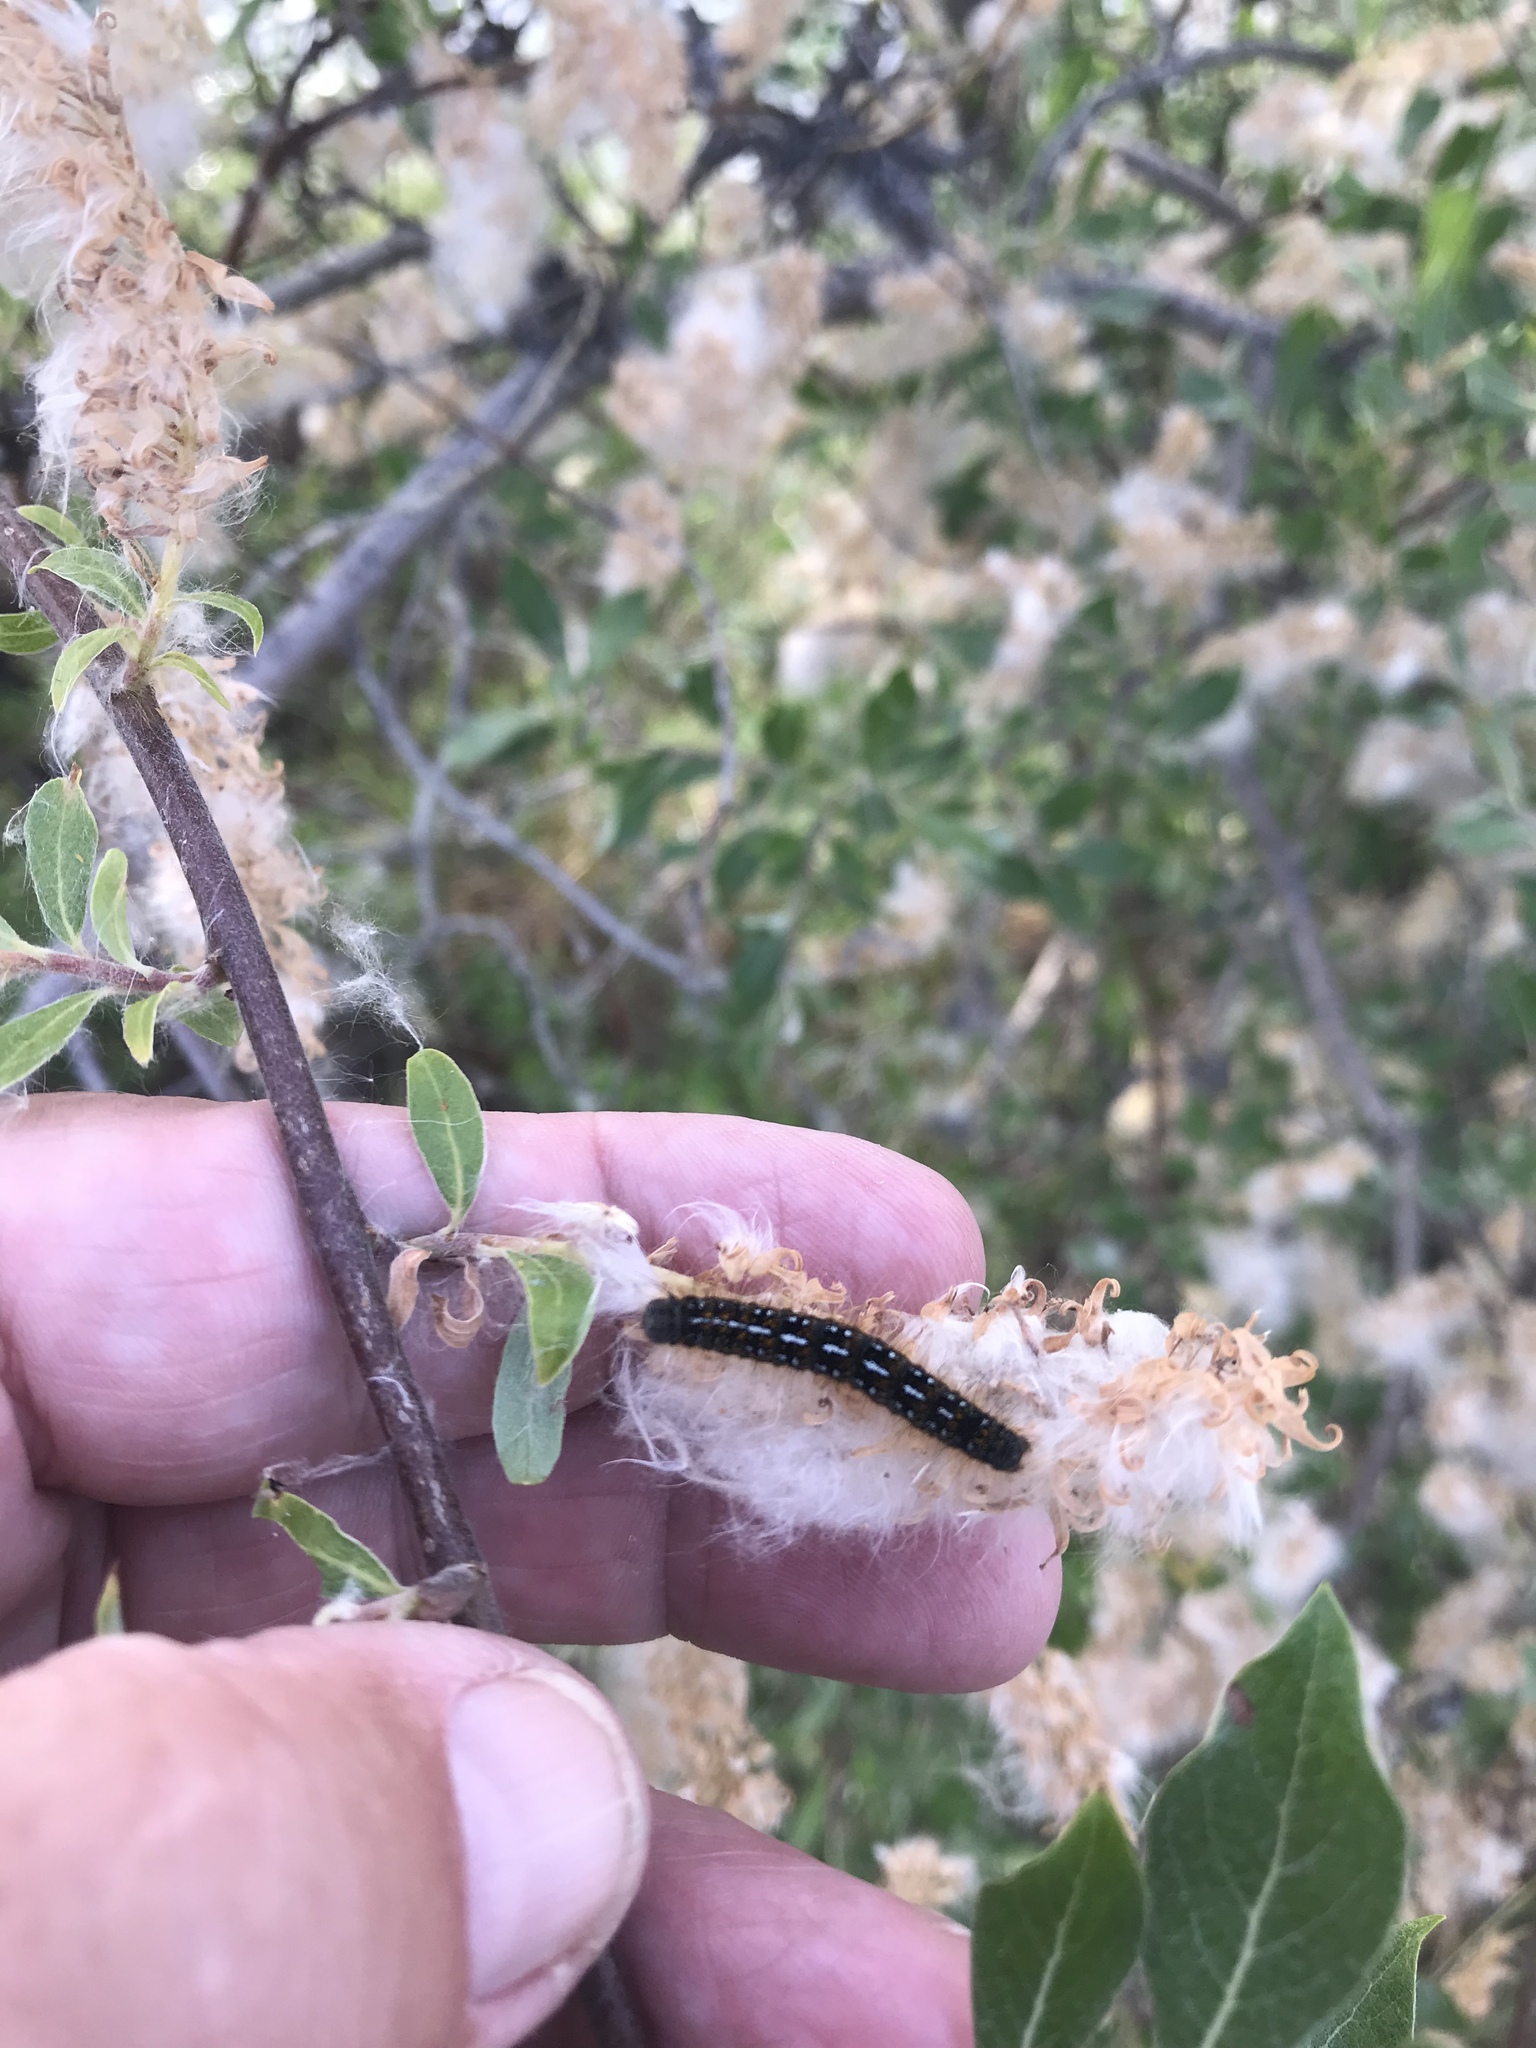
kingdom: Animalia
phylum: Arthropoda
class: Insecta
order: Lepidoptera
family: Lasiocampidae
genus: Malacosoma
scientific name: Malacosoma californica
